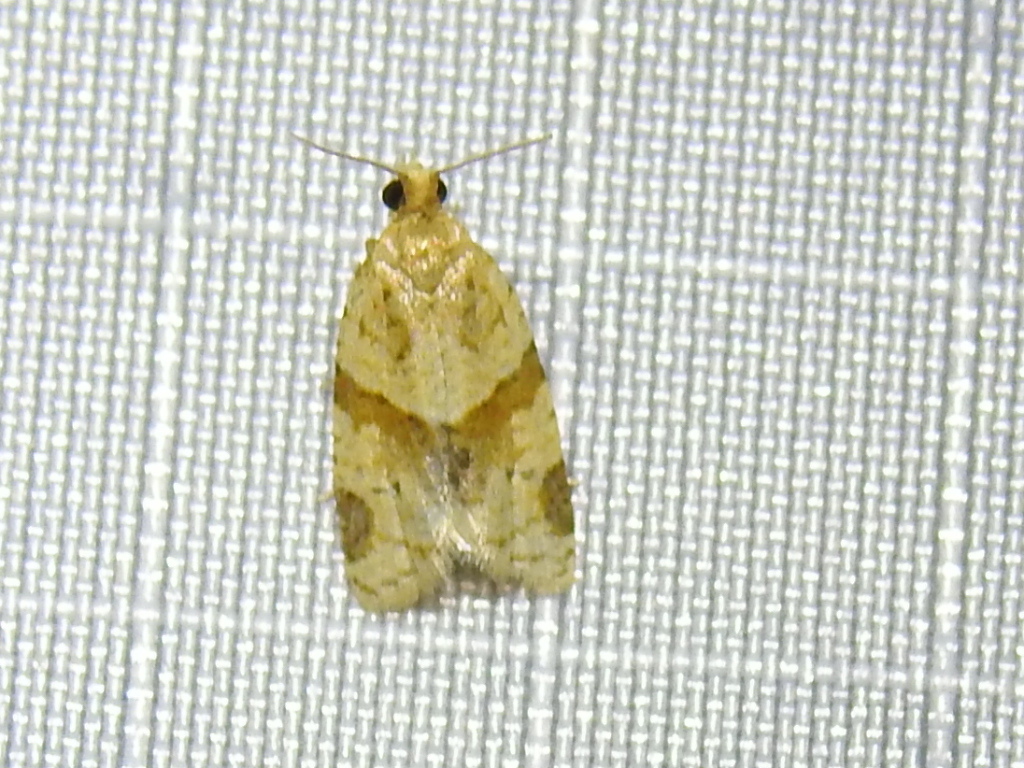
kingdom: Animalia
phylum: Arthropoda
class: Insecta
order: Lepidoptera
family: Tortricidae
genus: Clepsis
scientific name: Clepsis peritana
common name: Garden tortrix
